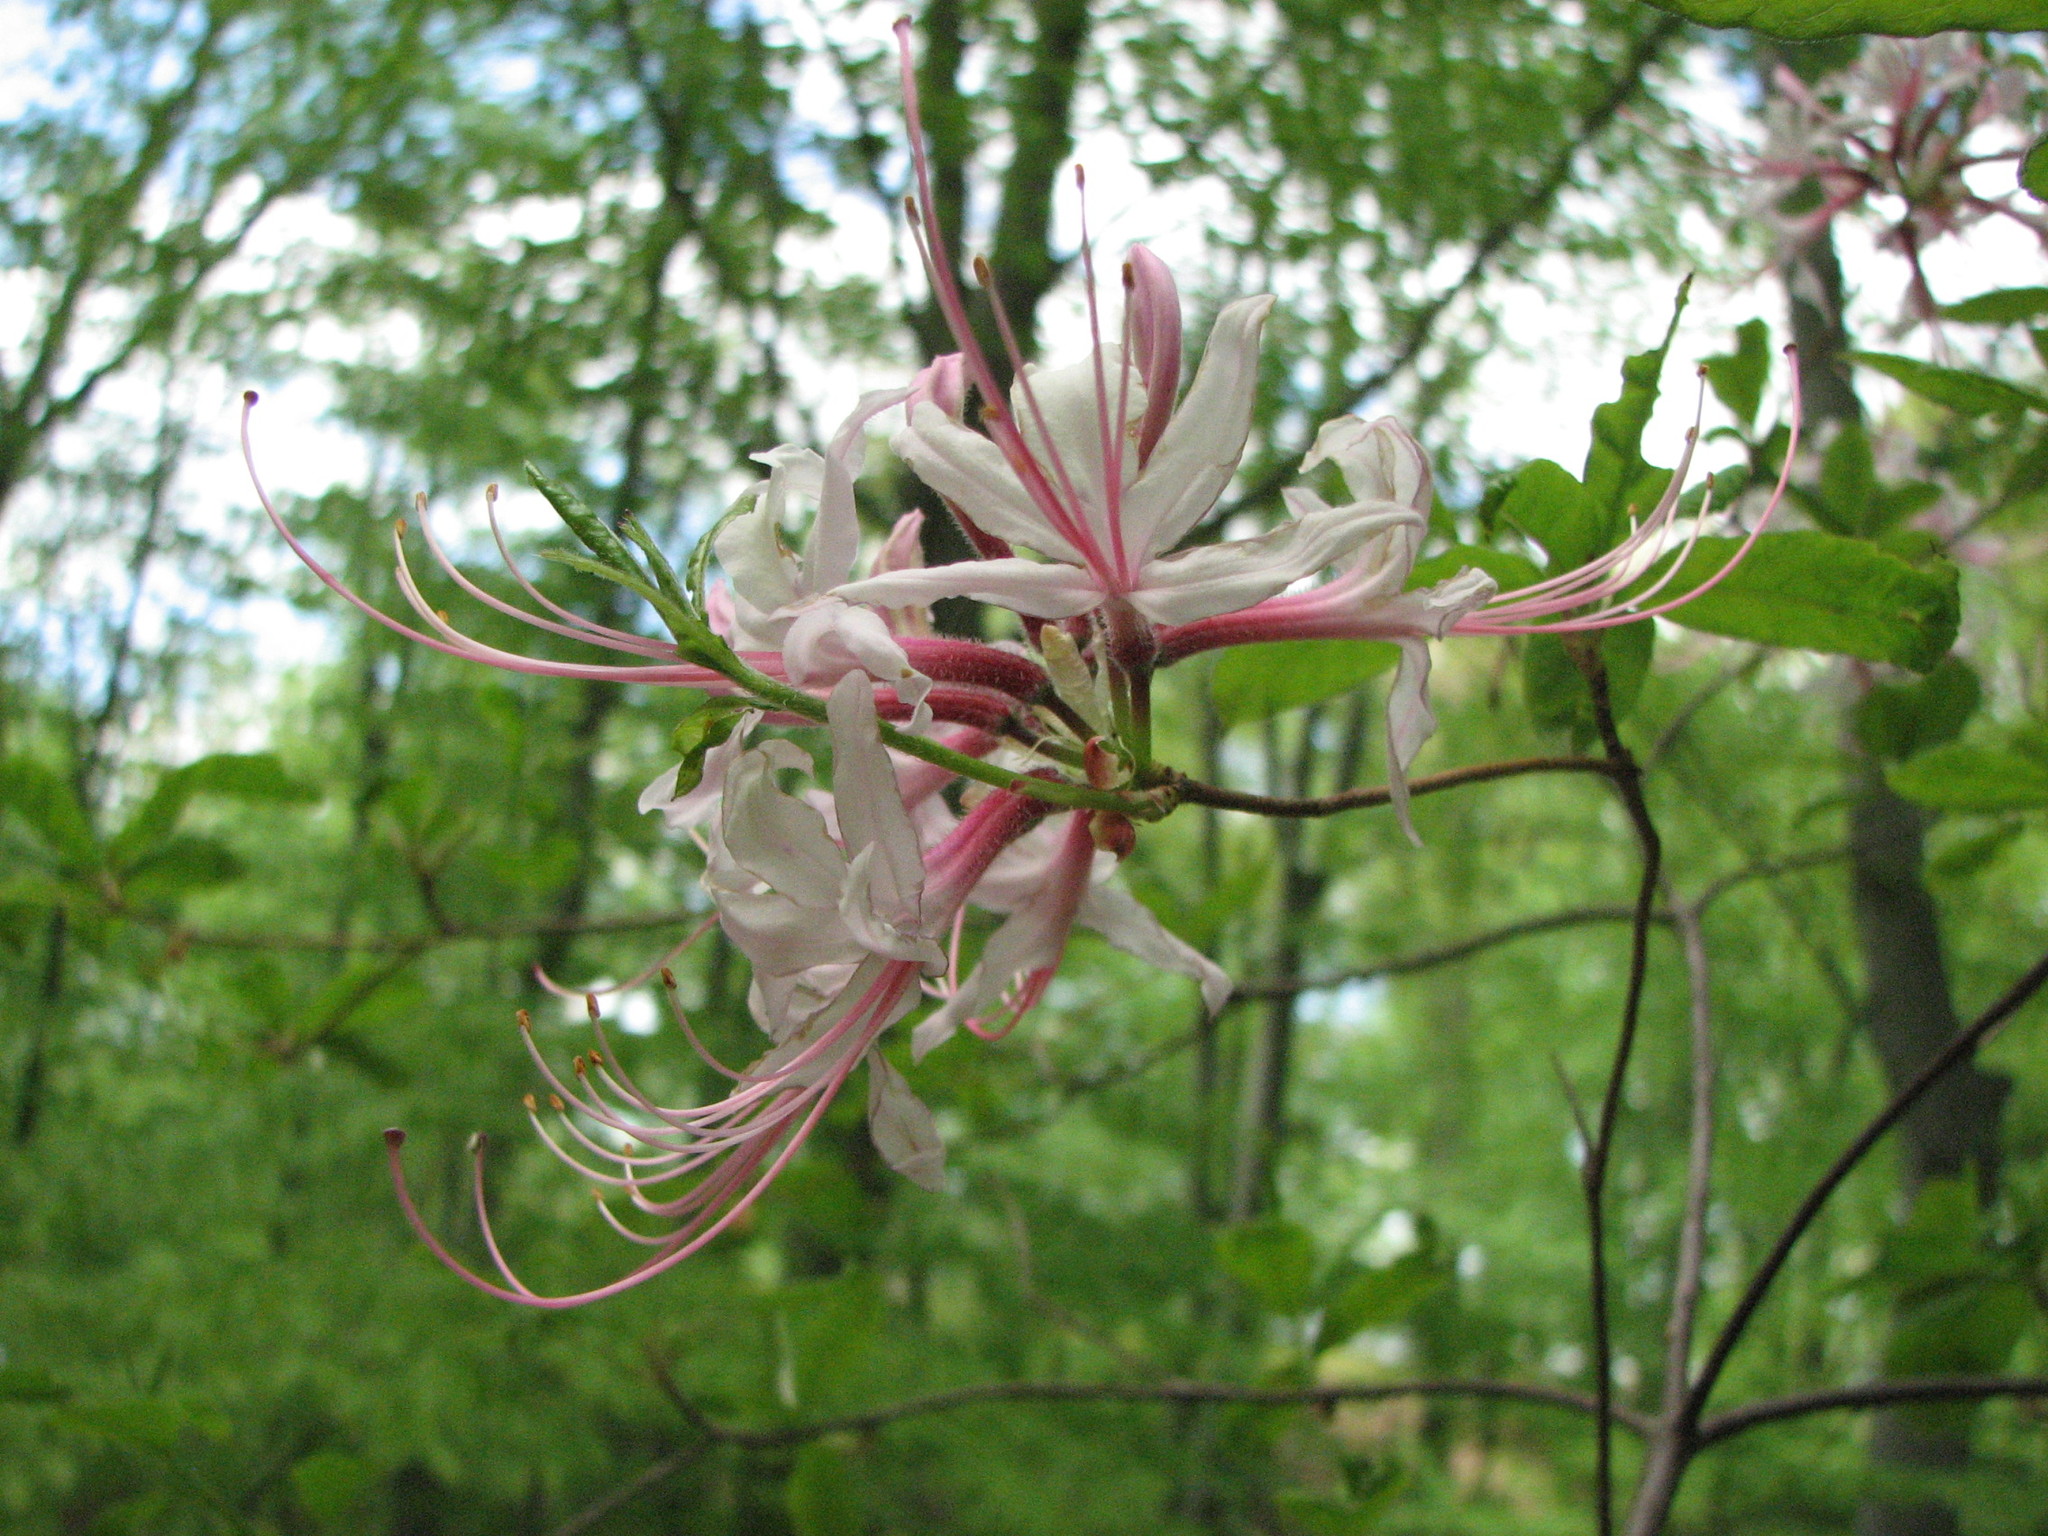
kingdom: Plantae
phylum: Tracheophyta
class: Magnoliopsida
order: Ericales
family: Ericaceae
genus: Rhododendron
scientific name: Rhododendron periclymenoides
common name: Election-pink
